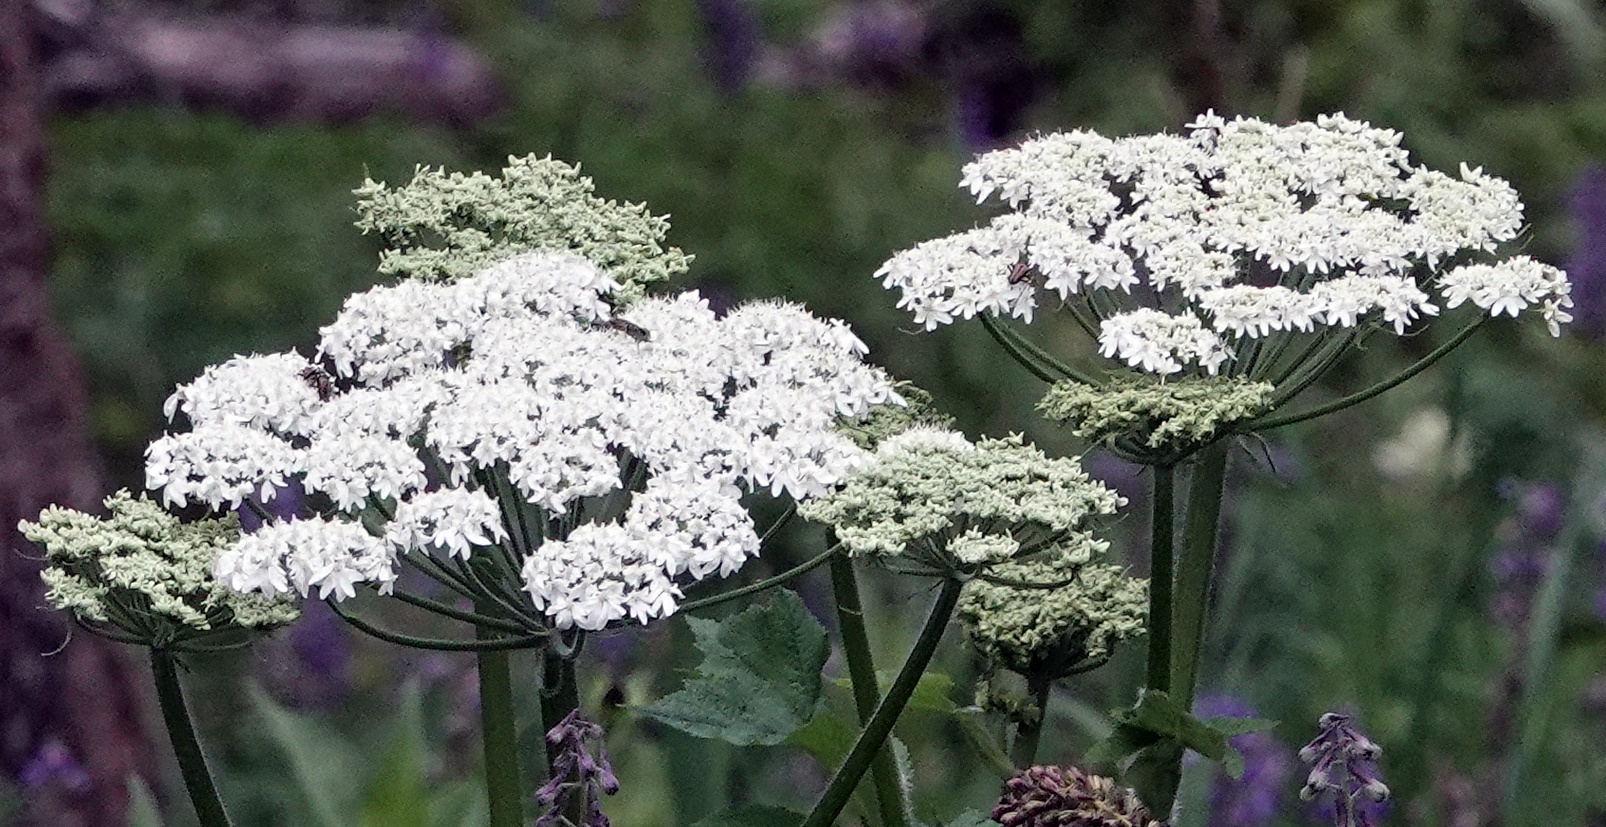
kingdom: Plantae
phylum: Tracheophyta
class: Magnoliopsida
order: Apiales
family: Apiaceae
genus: Heracleum
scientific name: Heracleum maximum
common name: American cow parsnip
